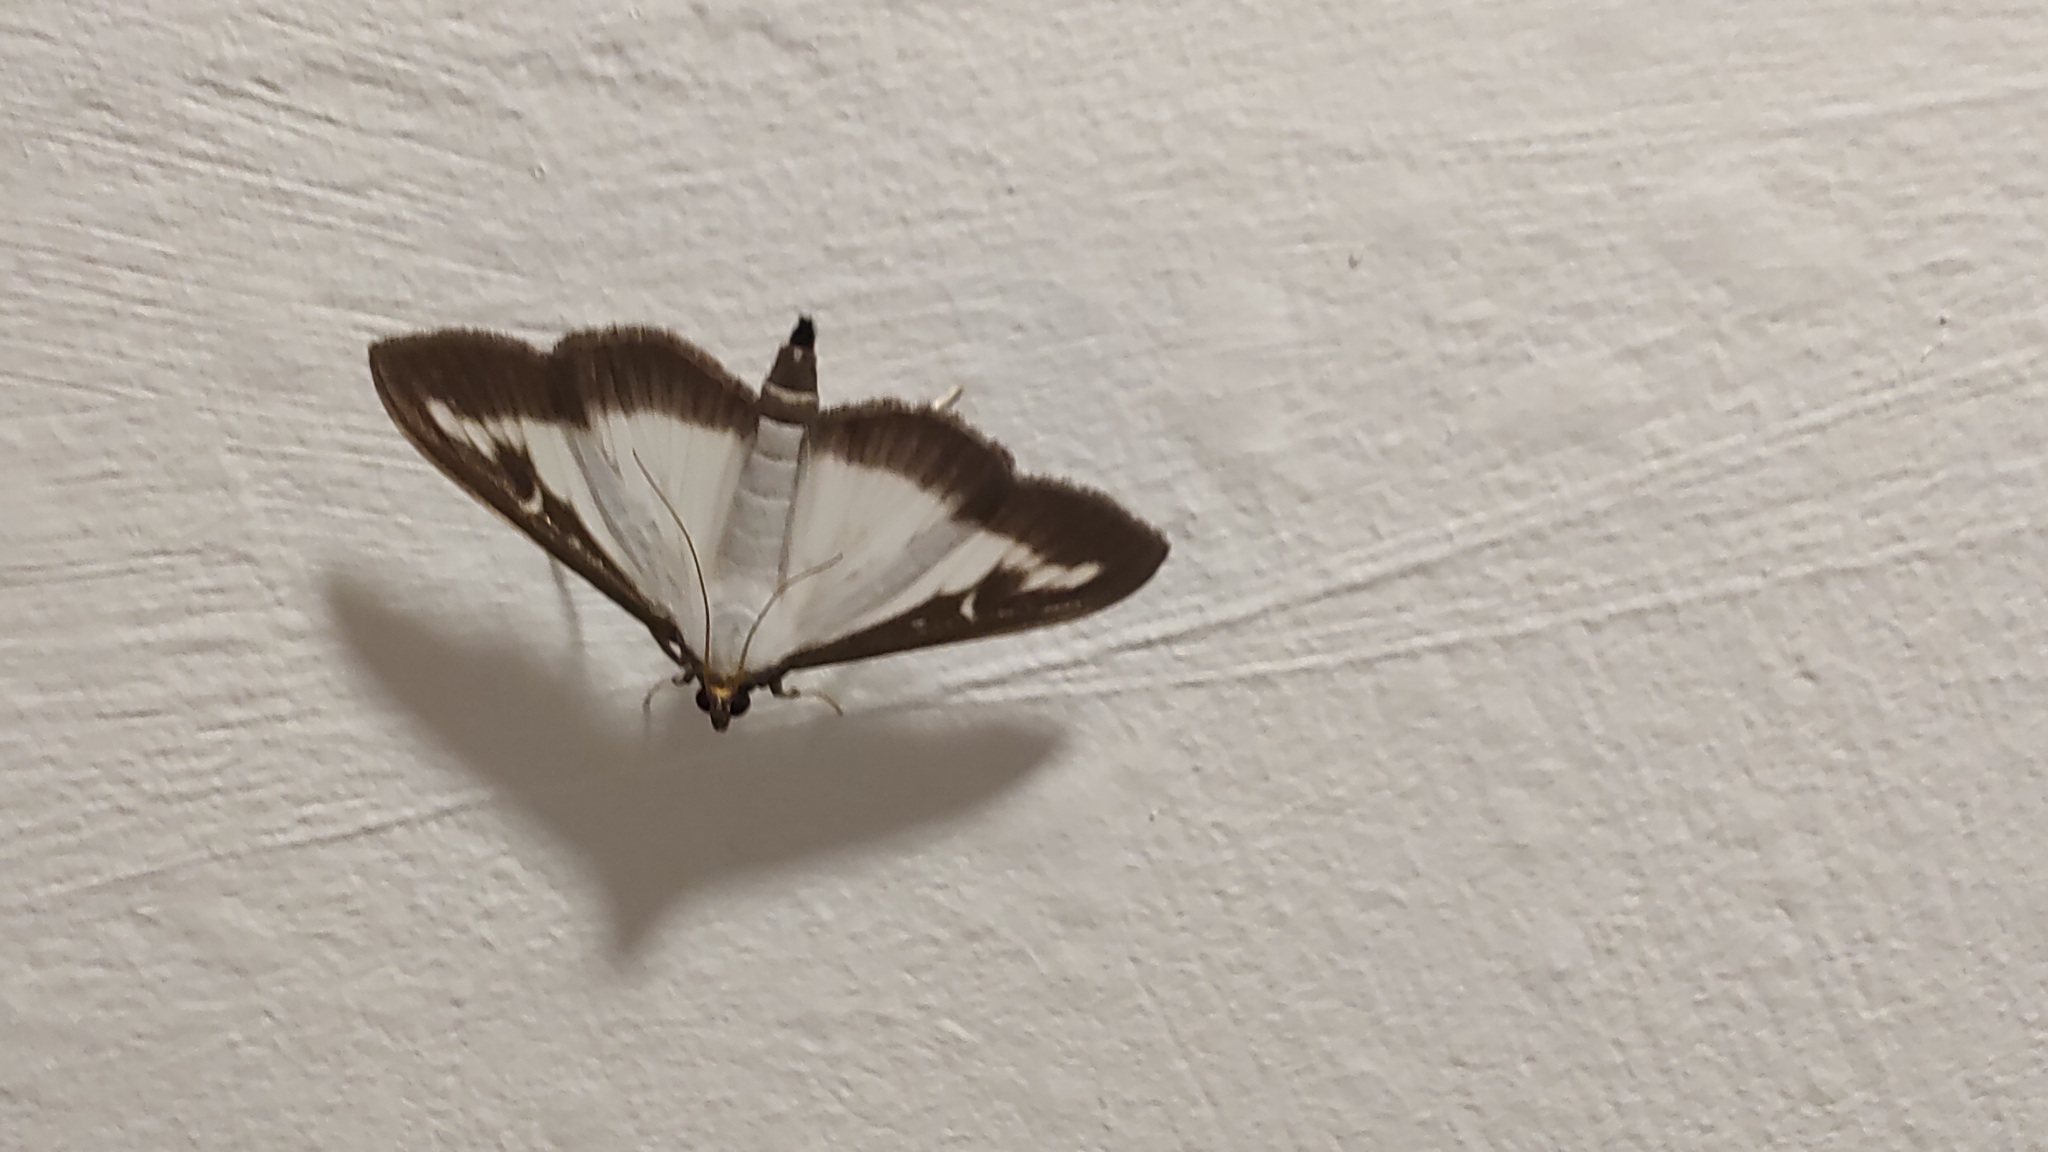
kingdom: Animalia
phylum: Arthropoda
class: Insecta
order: Lepidoptera
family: Crambidae
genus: Cydalima
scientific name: Cydalima perspectalis
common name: Box tree moth
